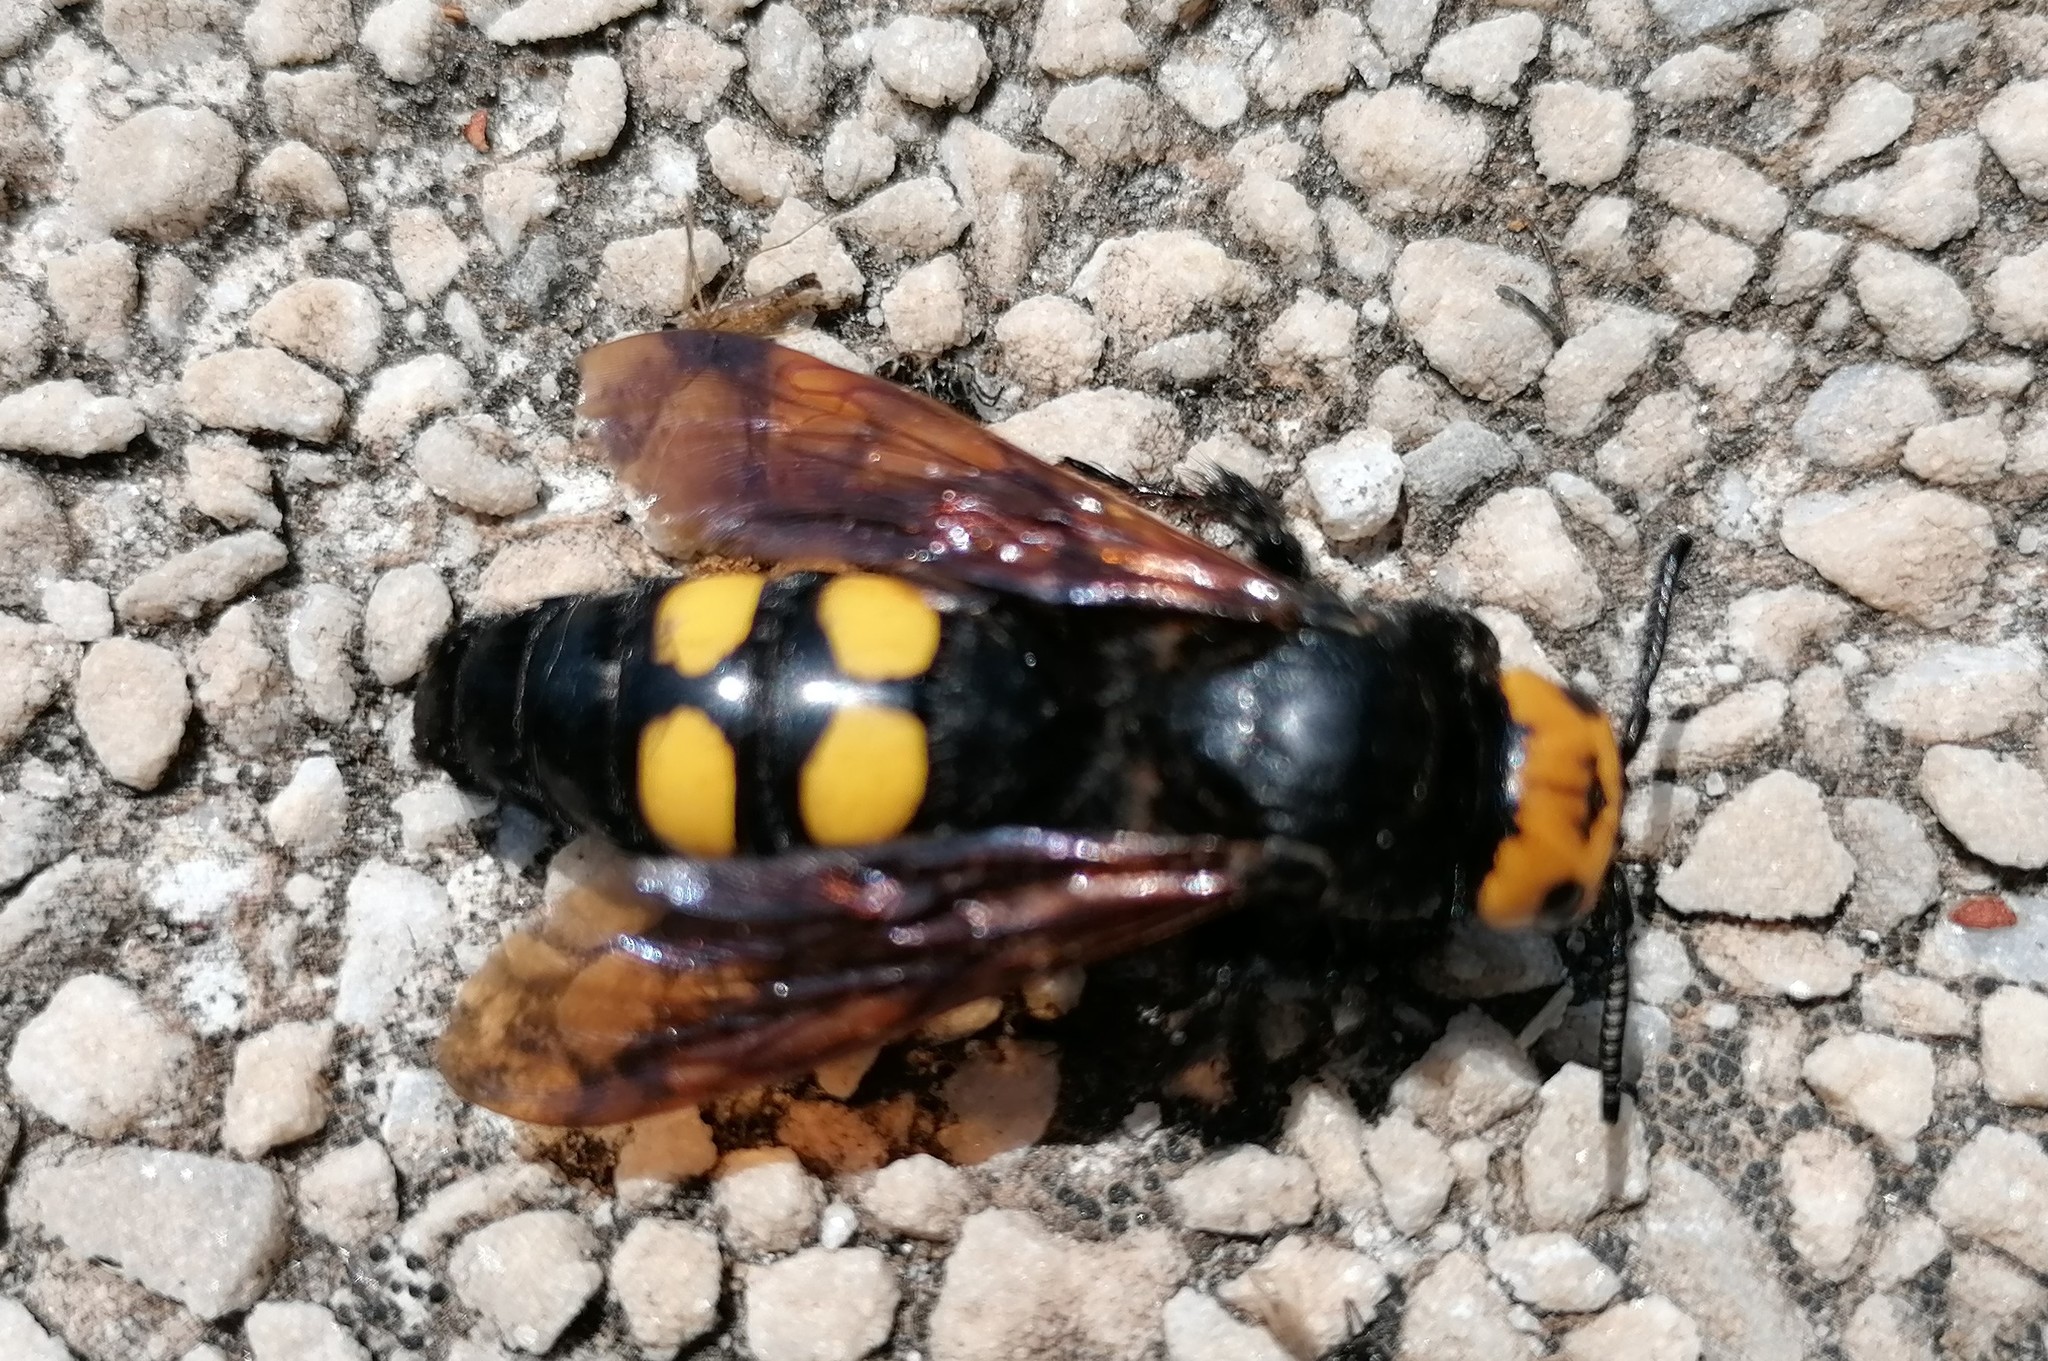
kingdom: Animalia
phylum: Arthropoda
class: Insecta
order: Hymenoptera
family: Scoliidae
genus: Megascolia
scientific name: Megascolia maculata
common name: Mammoth wasp
